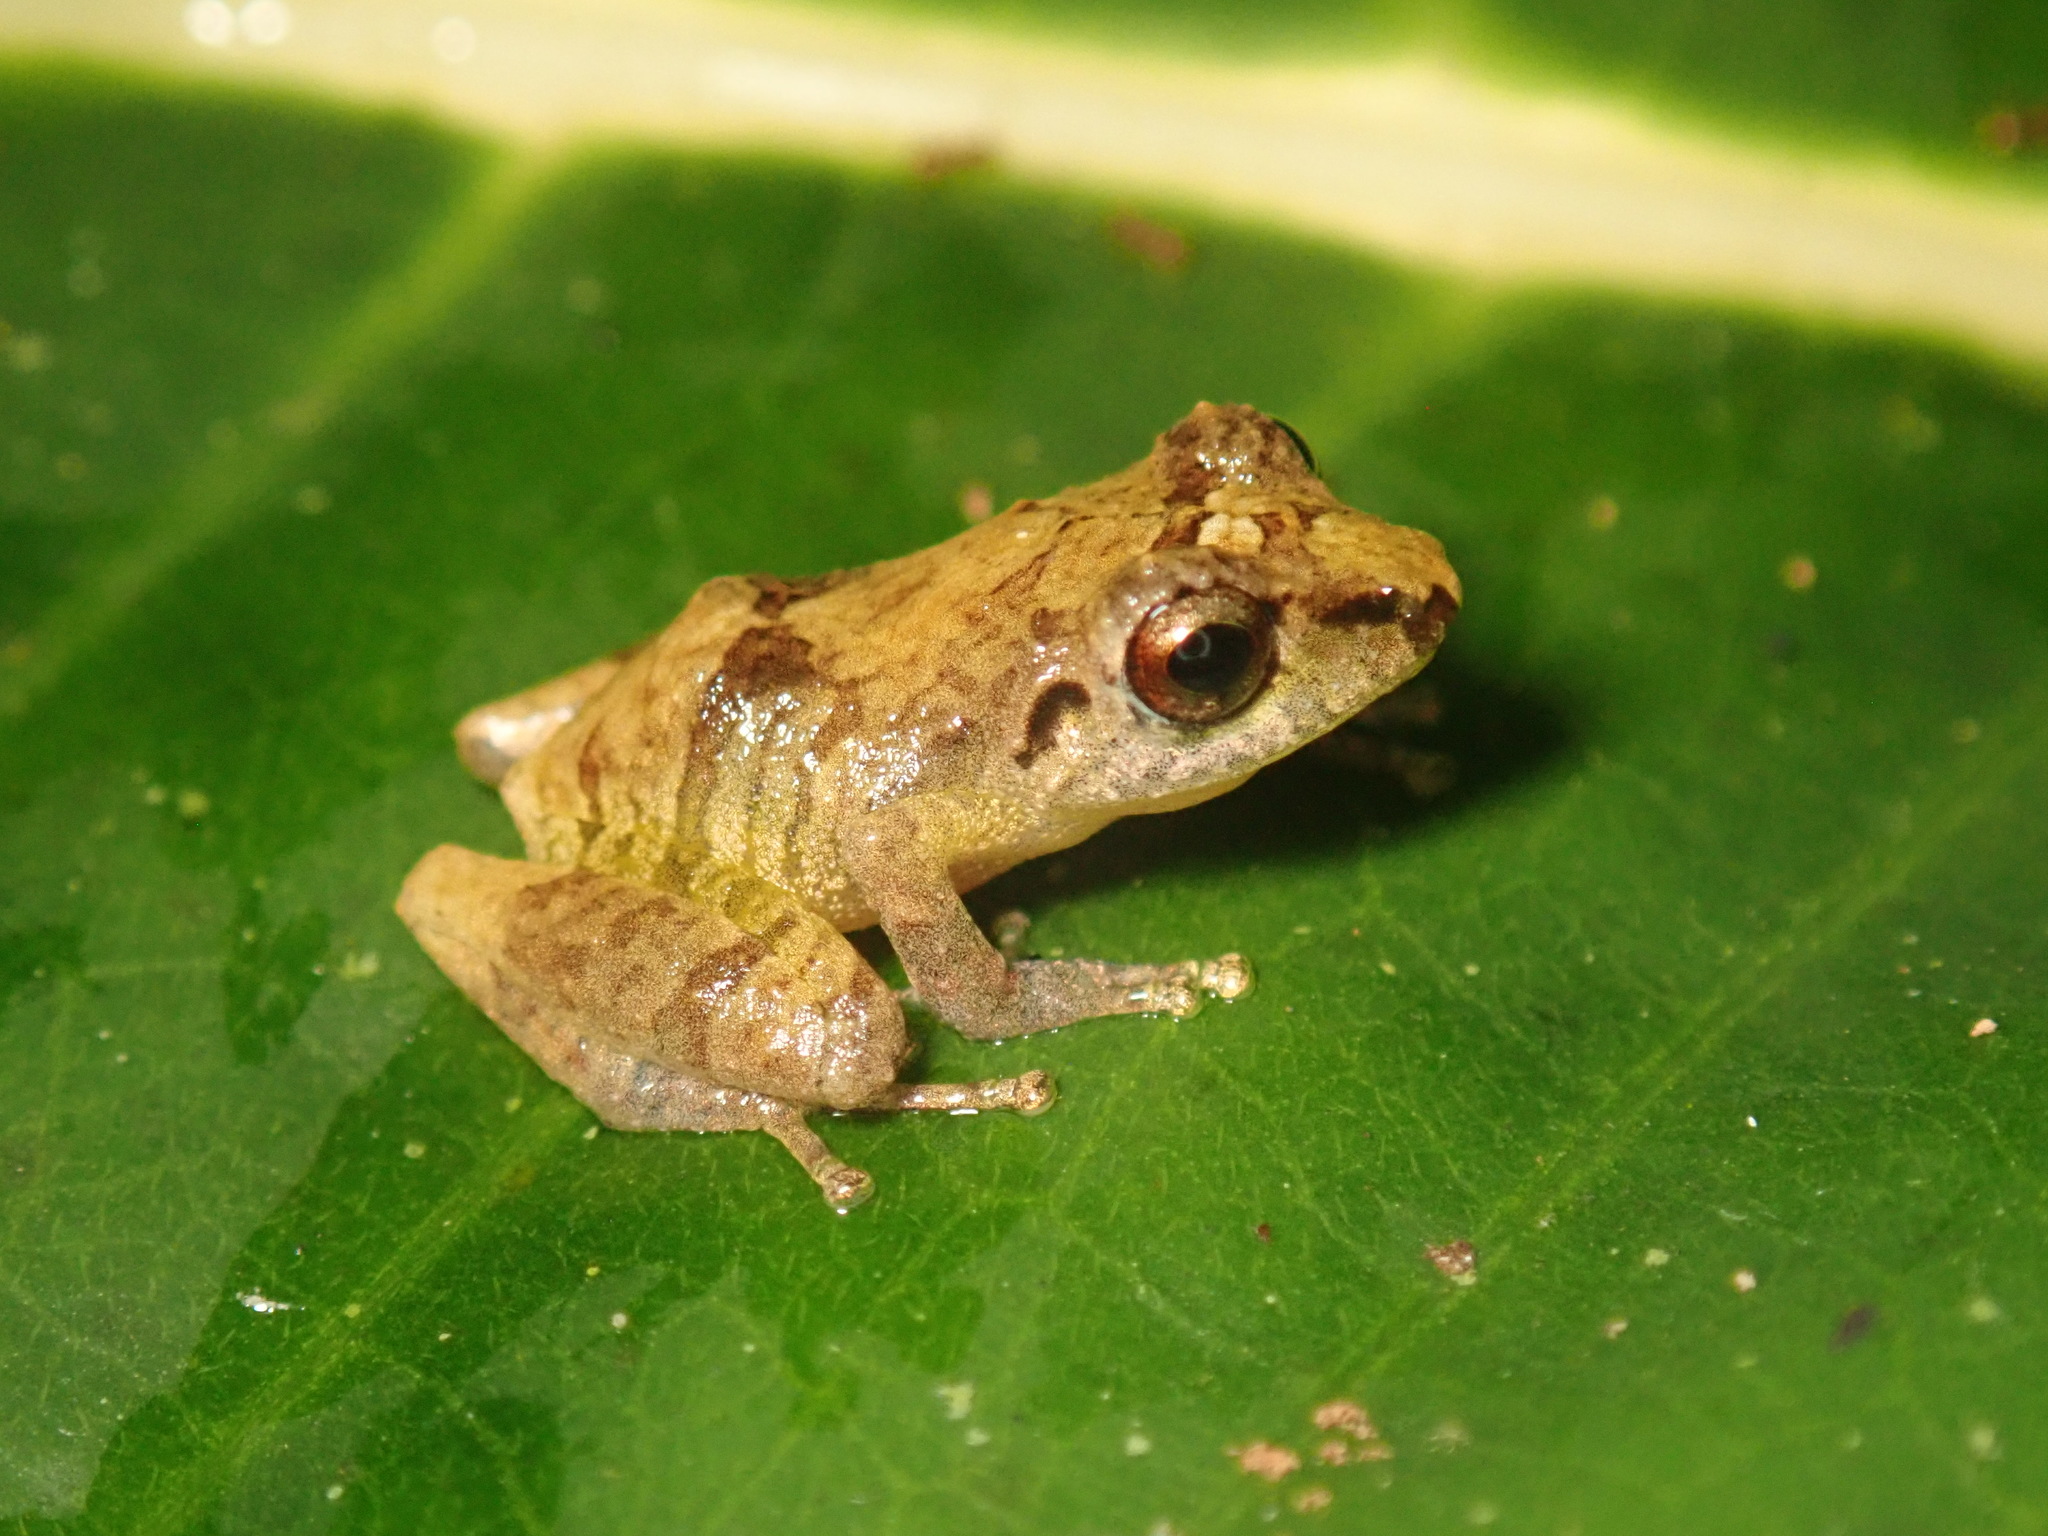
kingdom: Animalia
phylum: Chordata
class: Amphibia
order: Anura
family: Craugastoridae
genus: Pristimantis
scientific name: Pristimantis ridens
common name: Rio san juan robber frog
